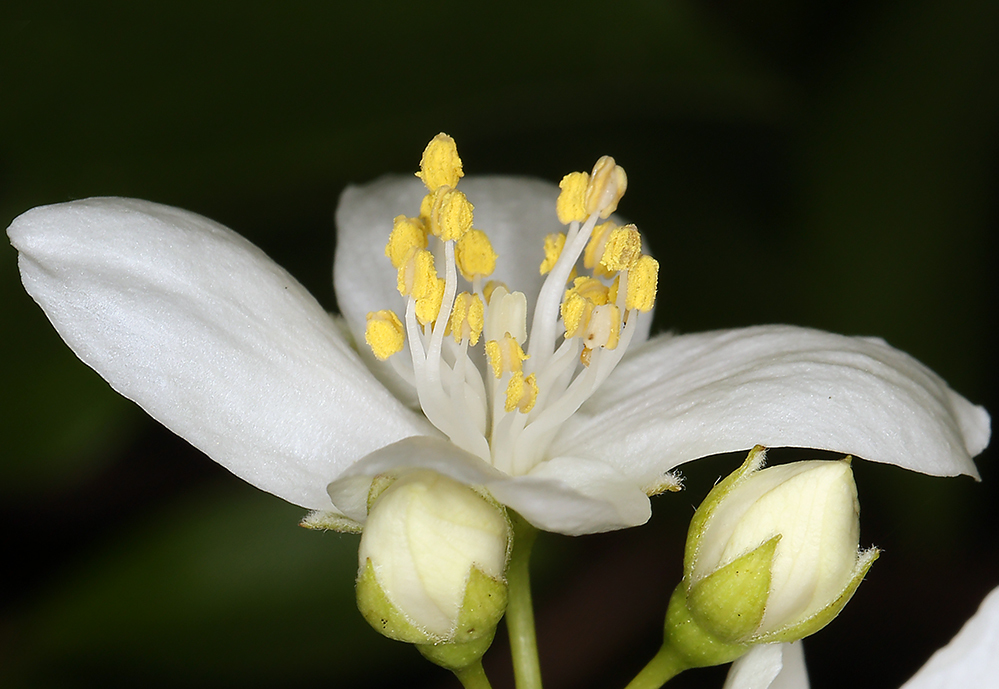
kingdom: Plantae
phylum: Tracheophyta
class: Magnoliopsida
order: Cornales
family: Hydrangeaceae
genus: Philadelphus
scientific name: Philadelphus lewisii
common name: Lewis's mock orange
